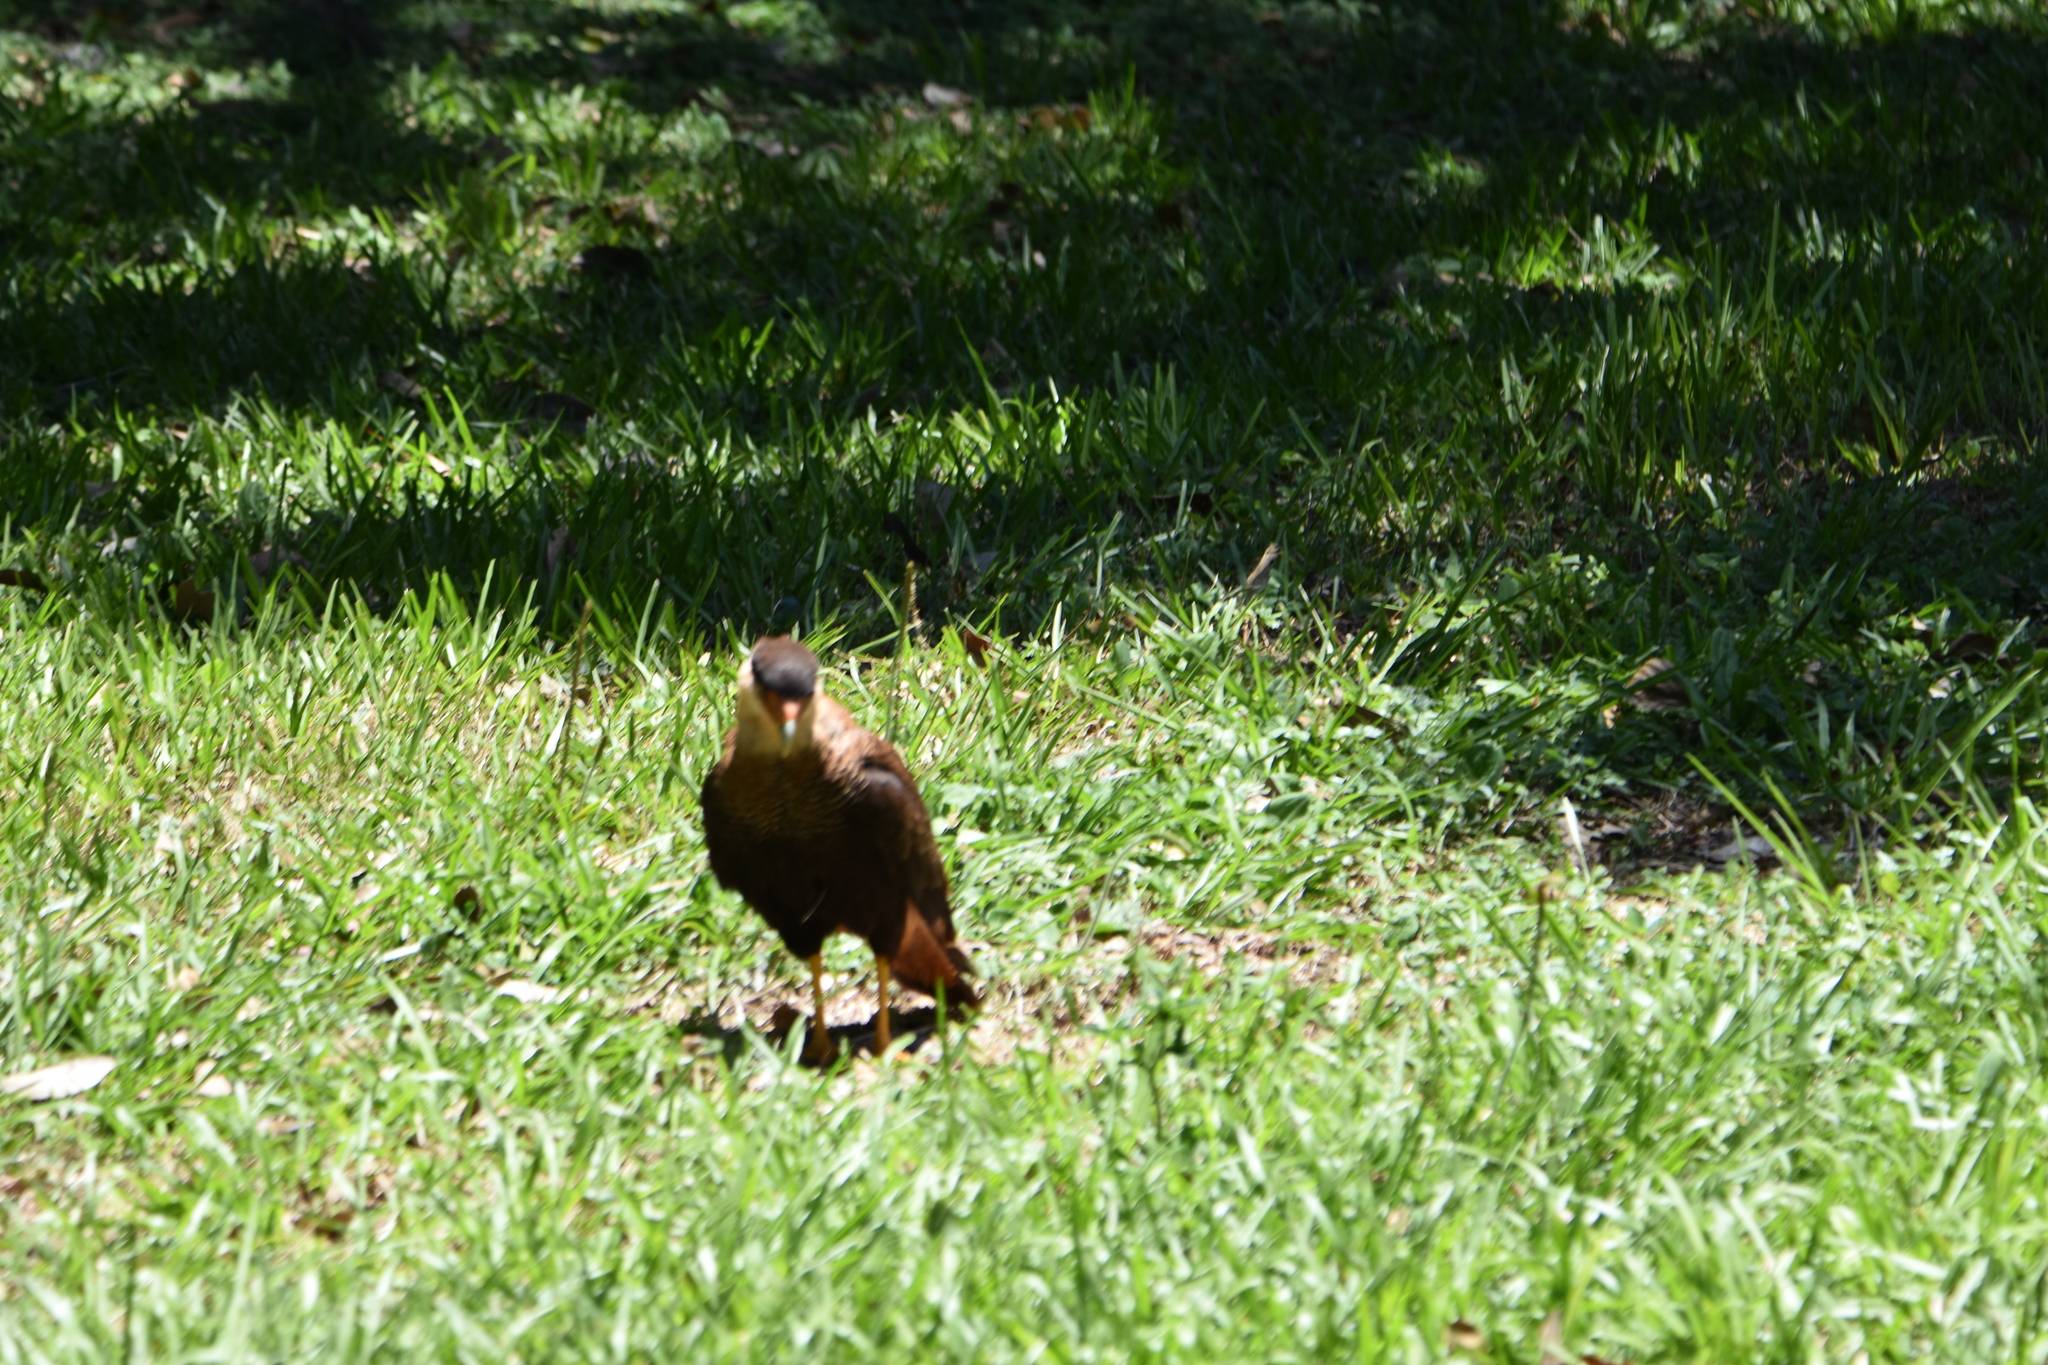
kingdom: Animalia
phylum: Chordata
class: Aves
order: Falconiformes
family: Falconidae
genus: Caracara
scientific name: Caracara plancus
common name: Southern caracara
